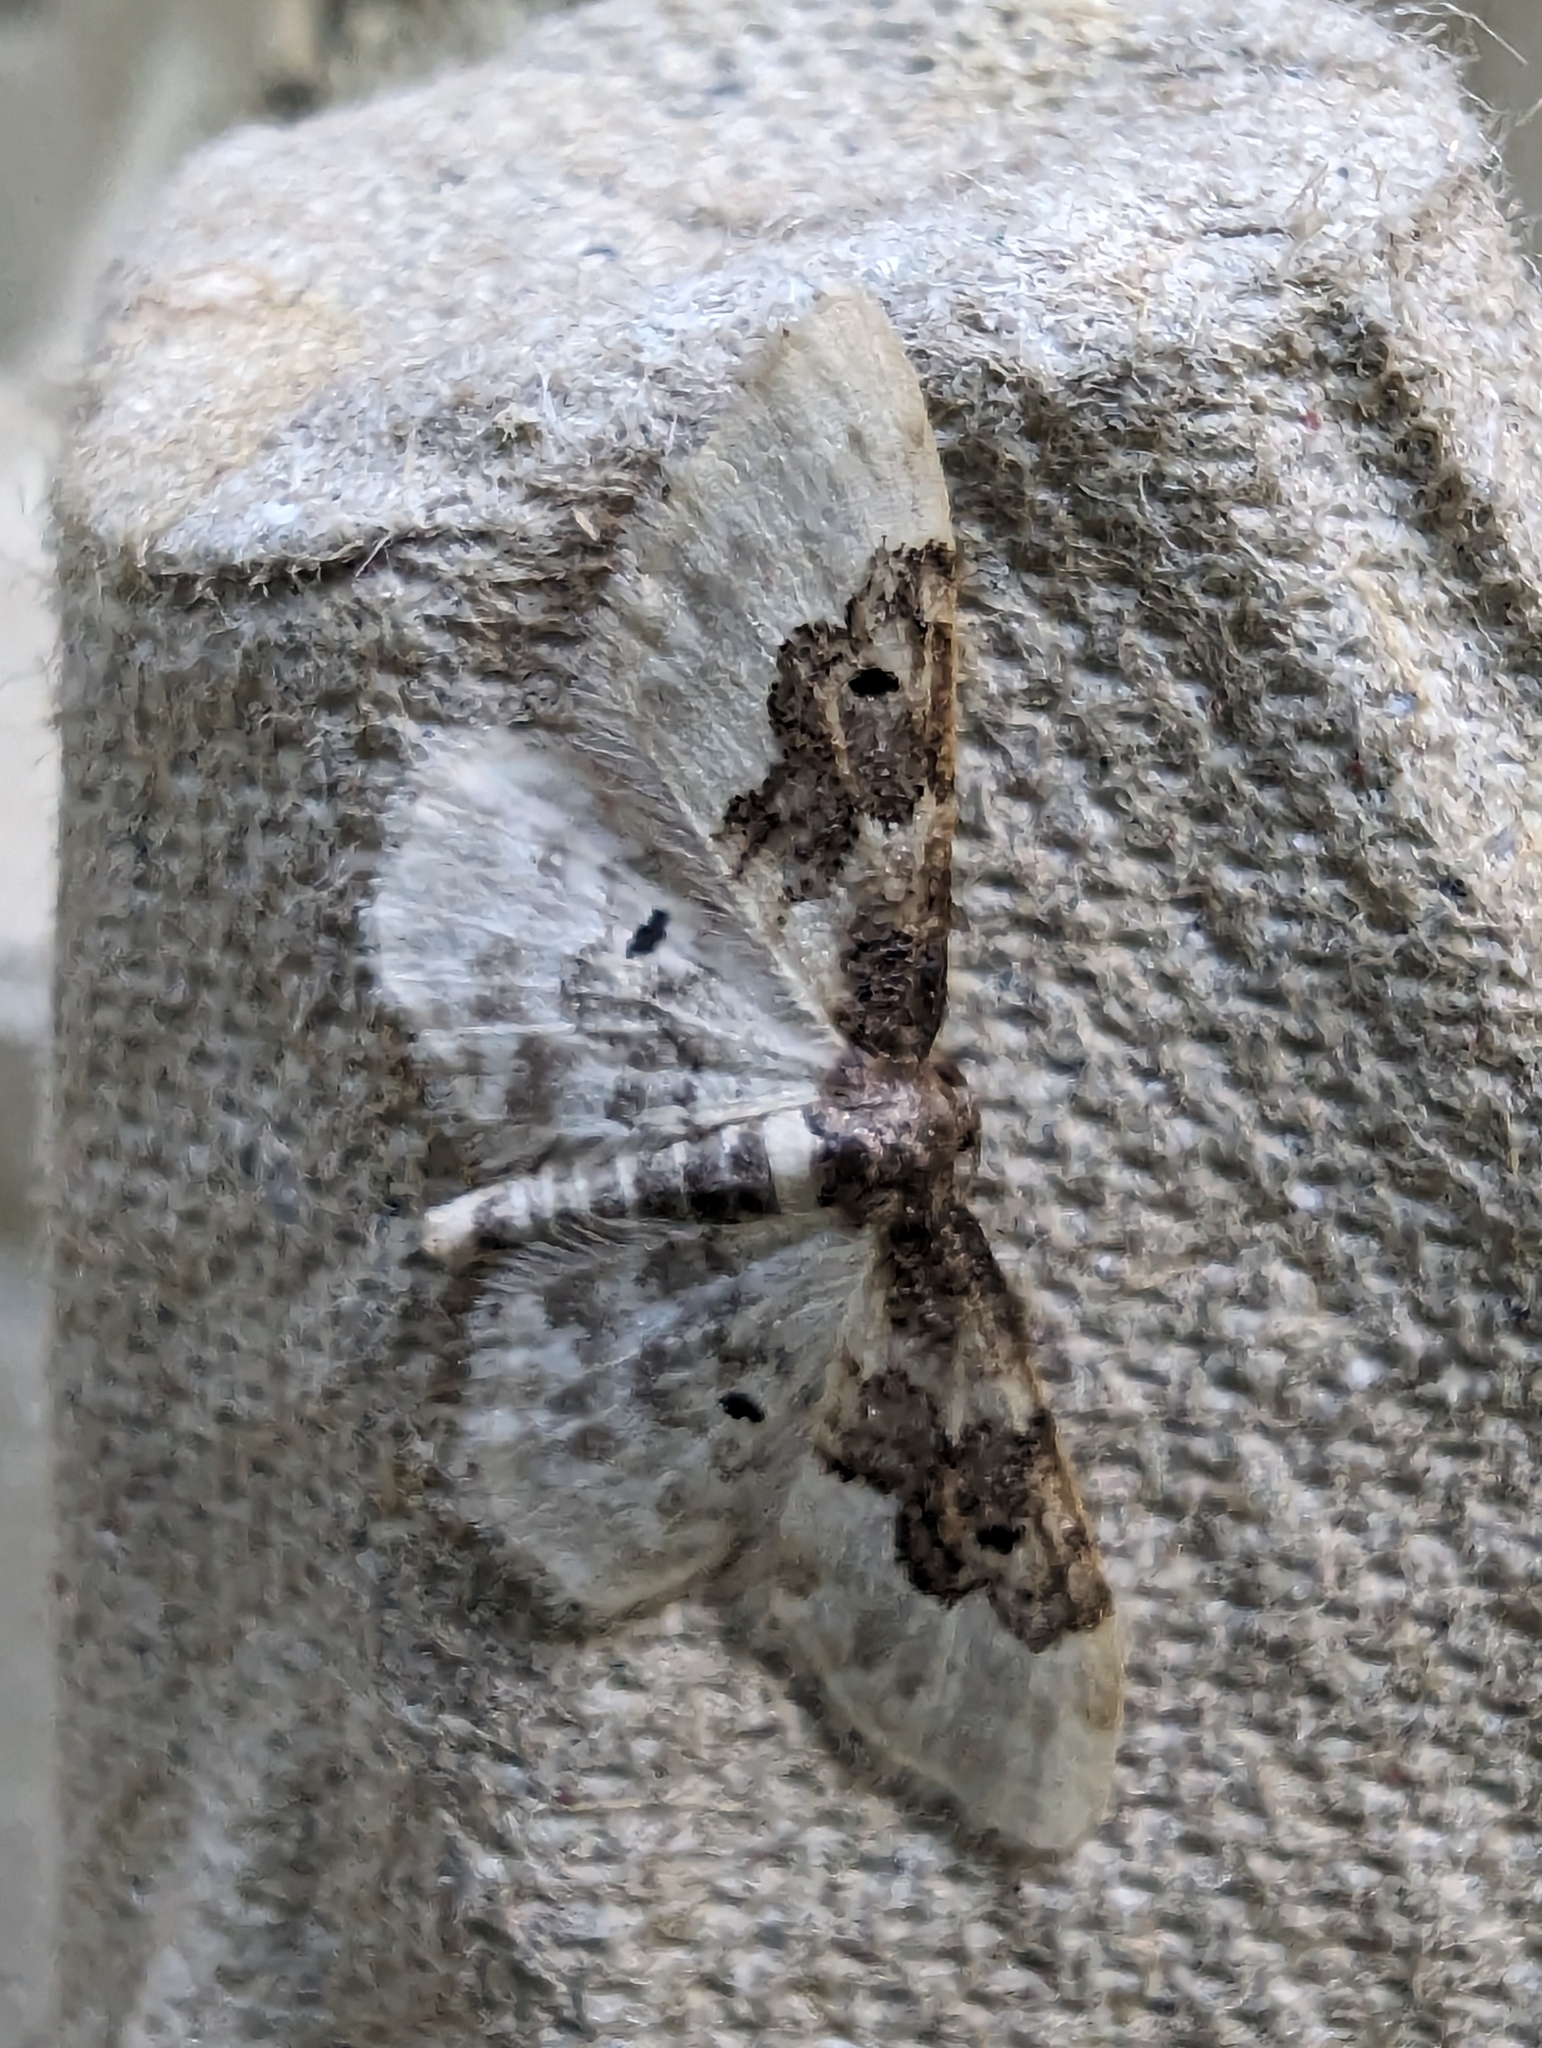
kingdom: Animalia
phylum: Arthropoda
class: Insecta
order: Lepidoptera
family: Geometridae
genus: Idaea
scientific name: Idaea rusticata
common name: Least carpet
